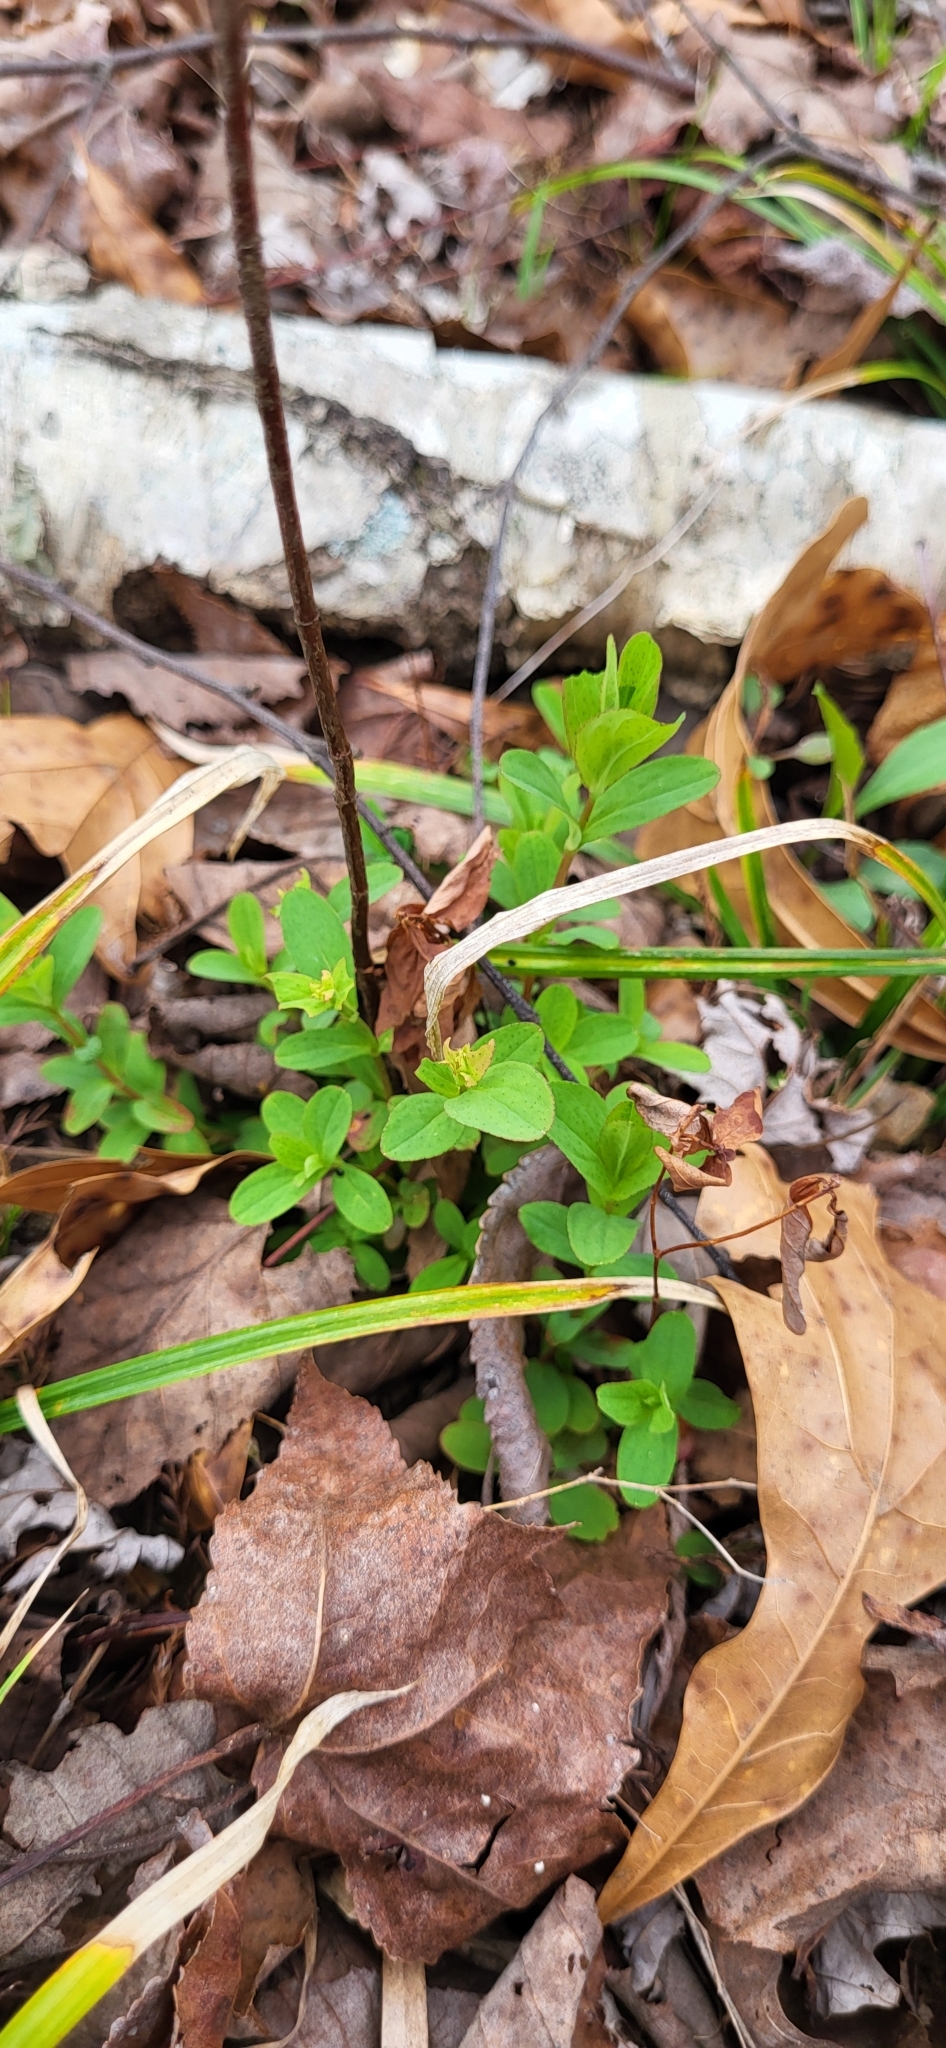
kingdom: Plantae
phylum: Tracheophyta
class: Magnoliopsida
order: Malpighiales
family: Hypericaceae
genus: Hypericum
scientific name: Hypericum punctatum
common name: Spotted st. john's-wort
